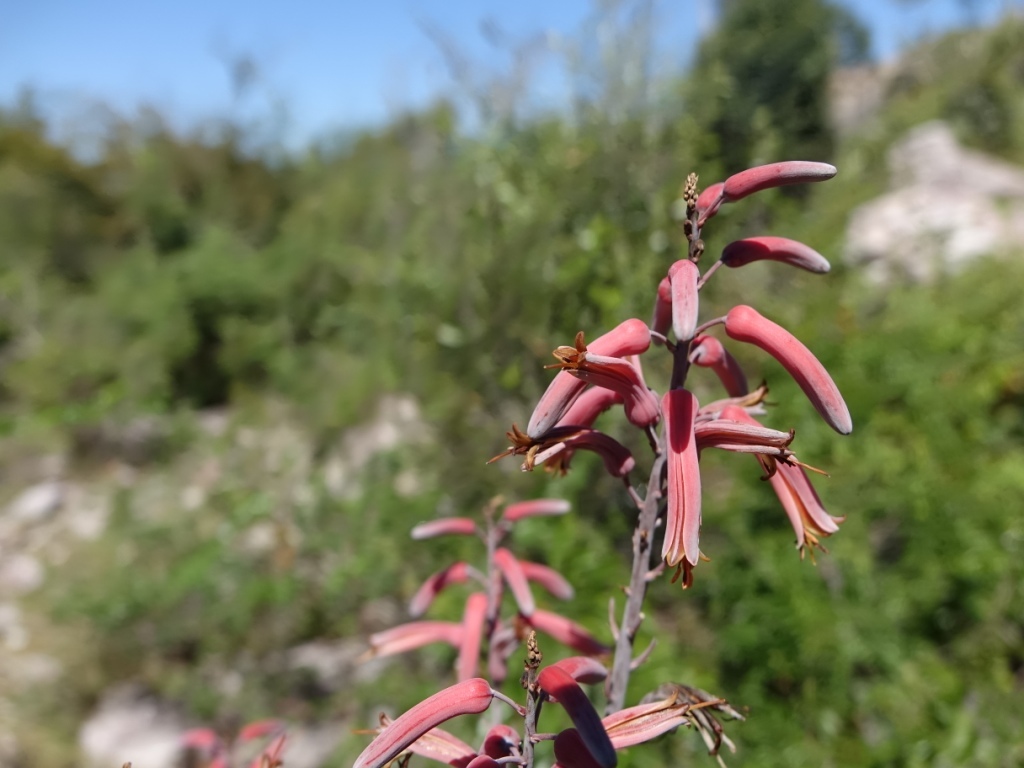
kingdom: Plantae
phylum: Tracheophyta
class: Liliopsida
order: Asparagales
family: Asphodelaceae
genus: Aloe
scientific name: Aloe divaricata
